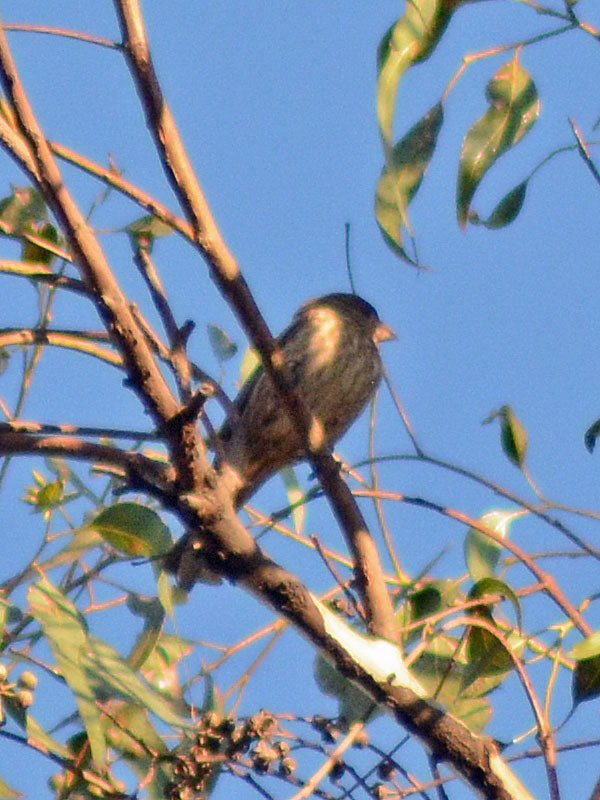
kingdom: Animalia
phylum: Chordata
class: Aves
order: Passeriformes
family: Fringillidae
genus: Haemorhous
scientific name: Haemorhous mexicanus
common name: House finch
